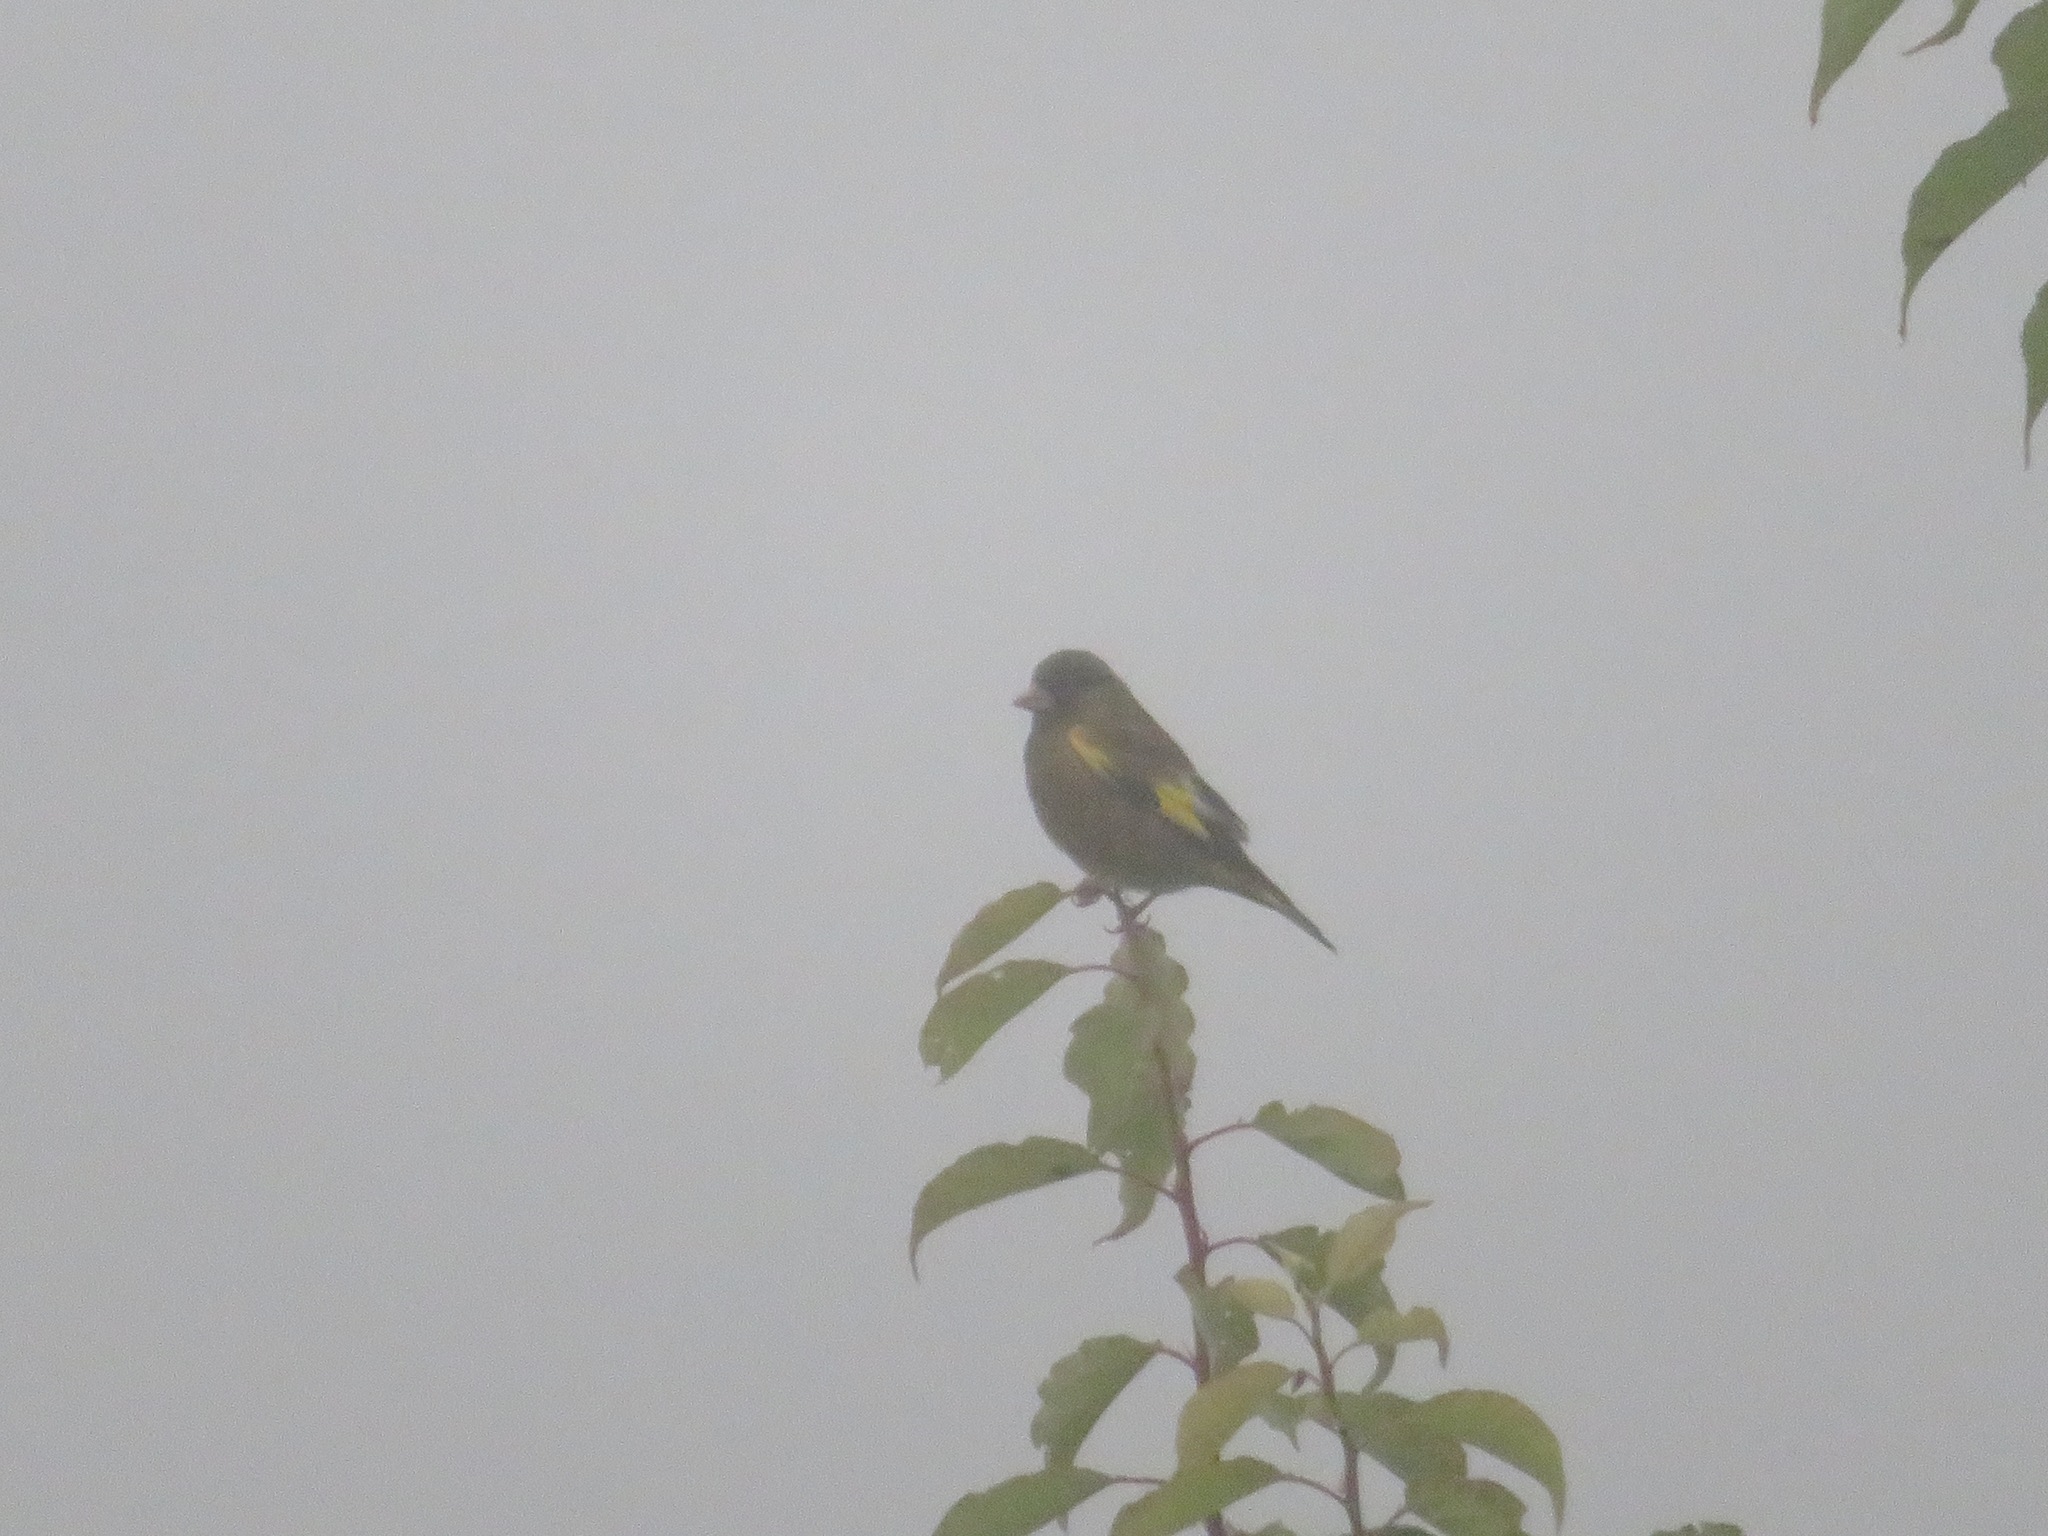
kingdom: Plantae
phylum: Tracheophyta
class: Liliopsida
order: Poales
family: Poaceae
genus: Chloris
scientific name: Chloris sinica
